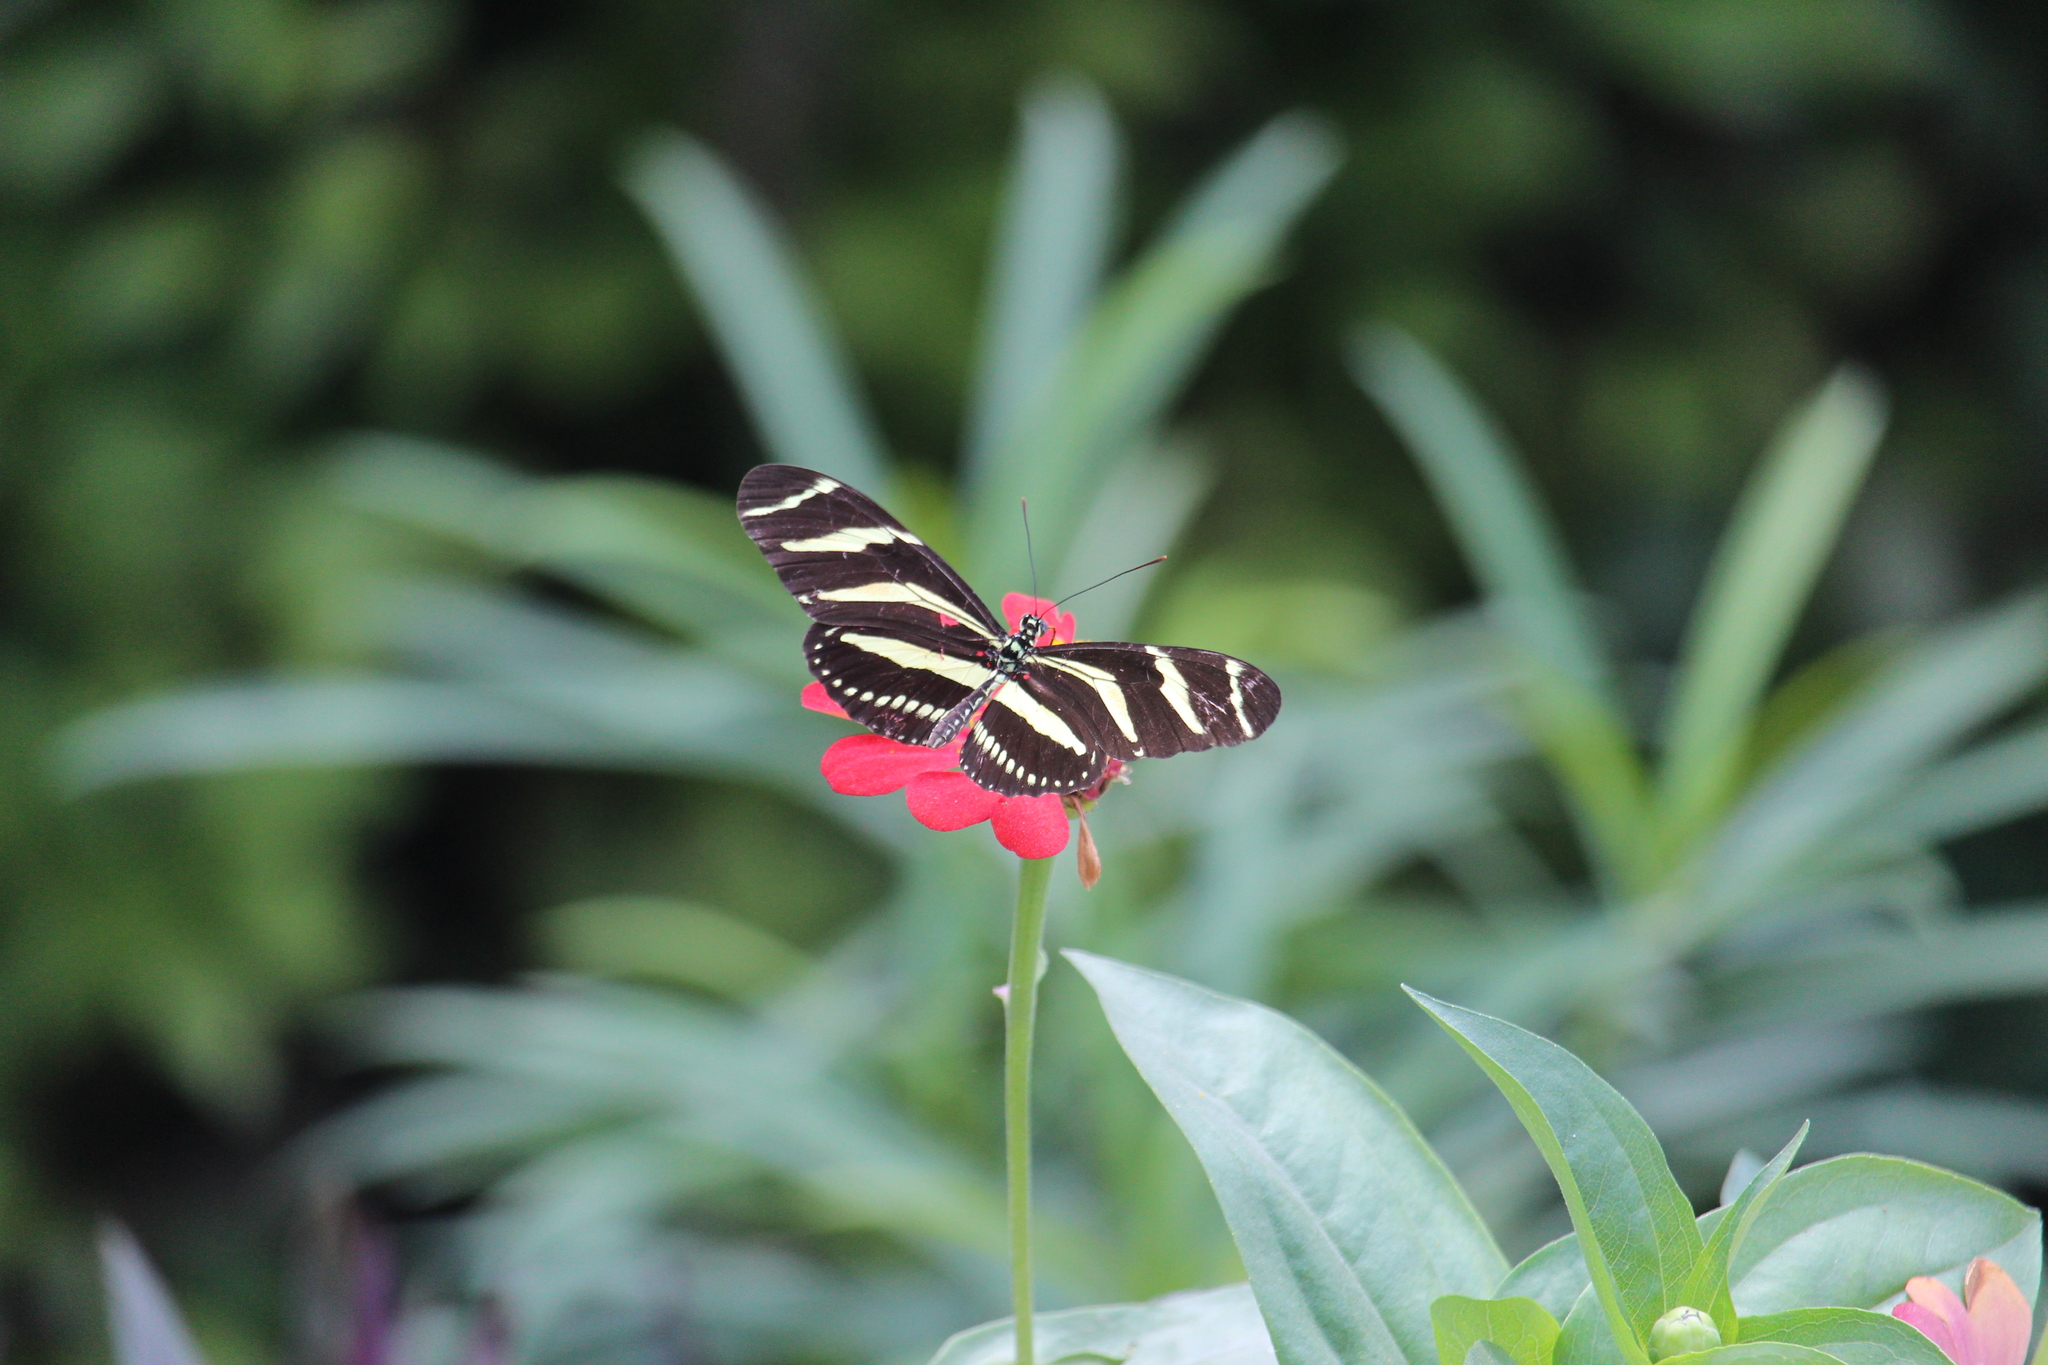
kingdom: Animalia
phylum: Arthropoda
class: Insecta
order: Lepidoptera
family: Nymphalidae
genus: Heliconius
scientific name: Heliconius charithonia
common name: Zebra long wing
